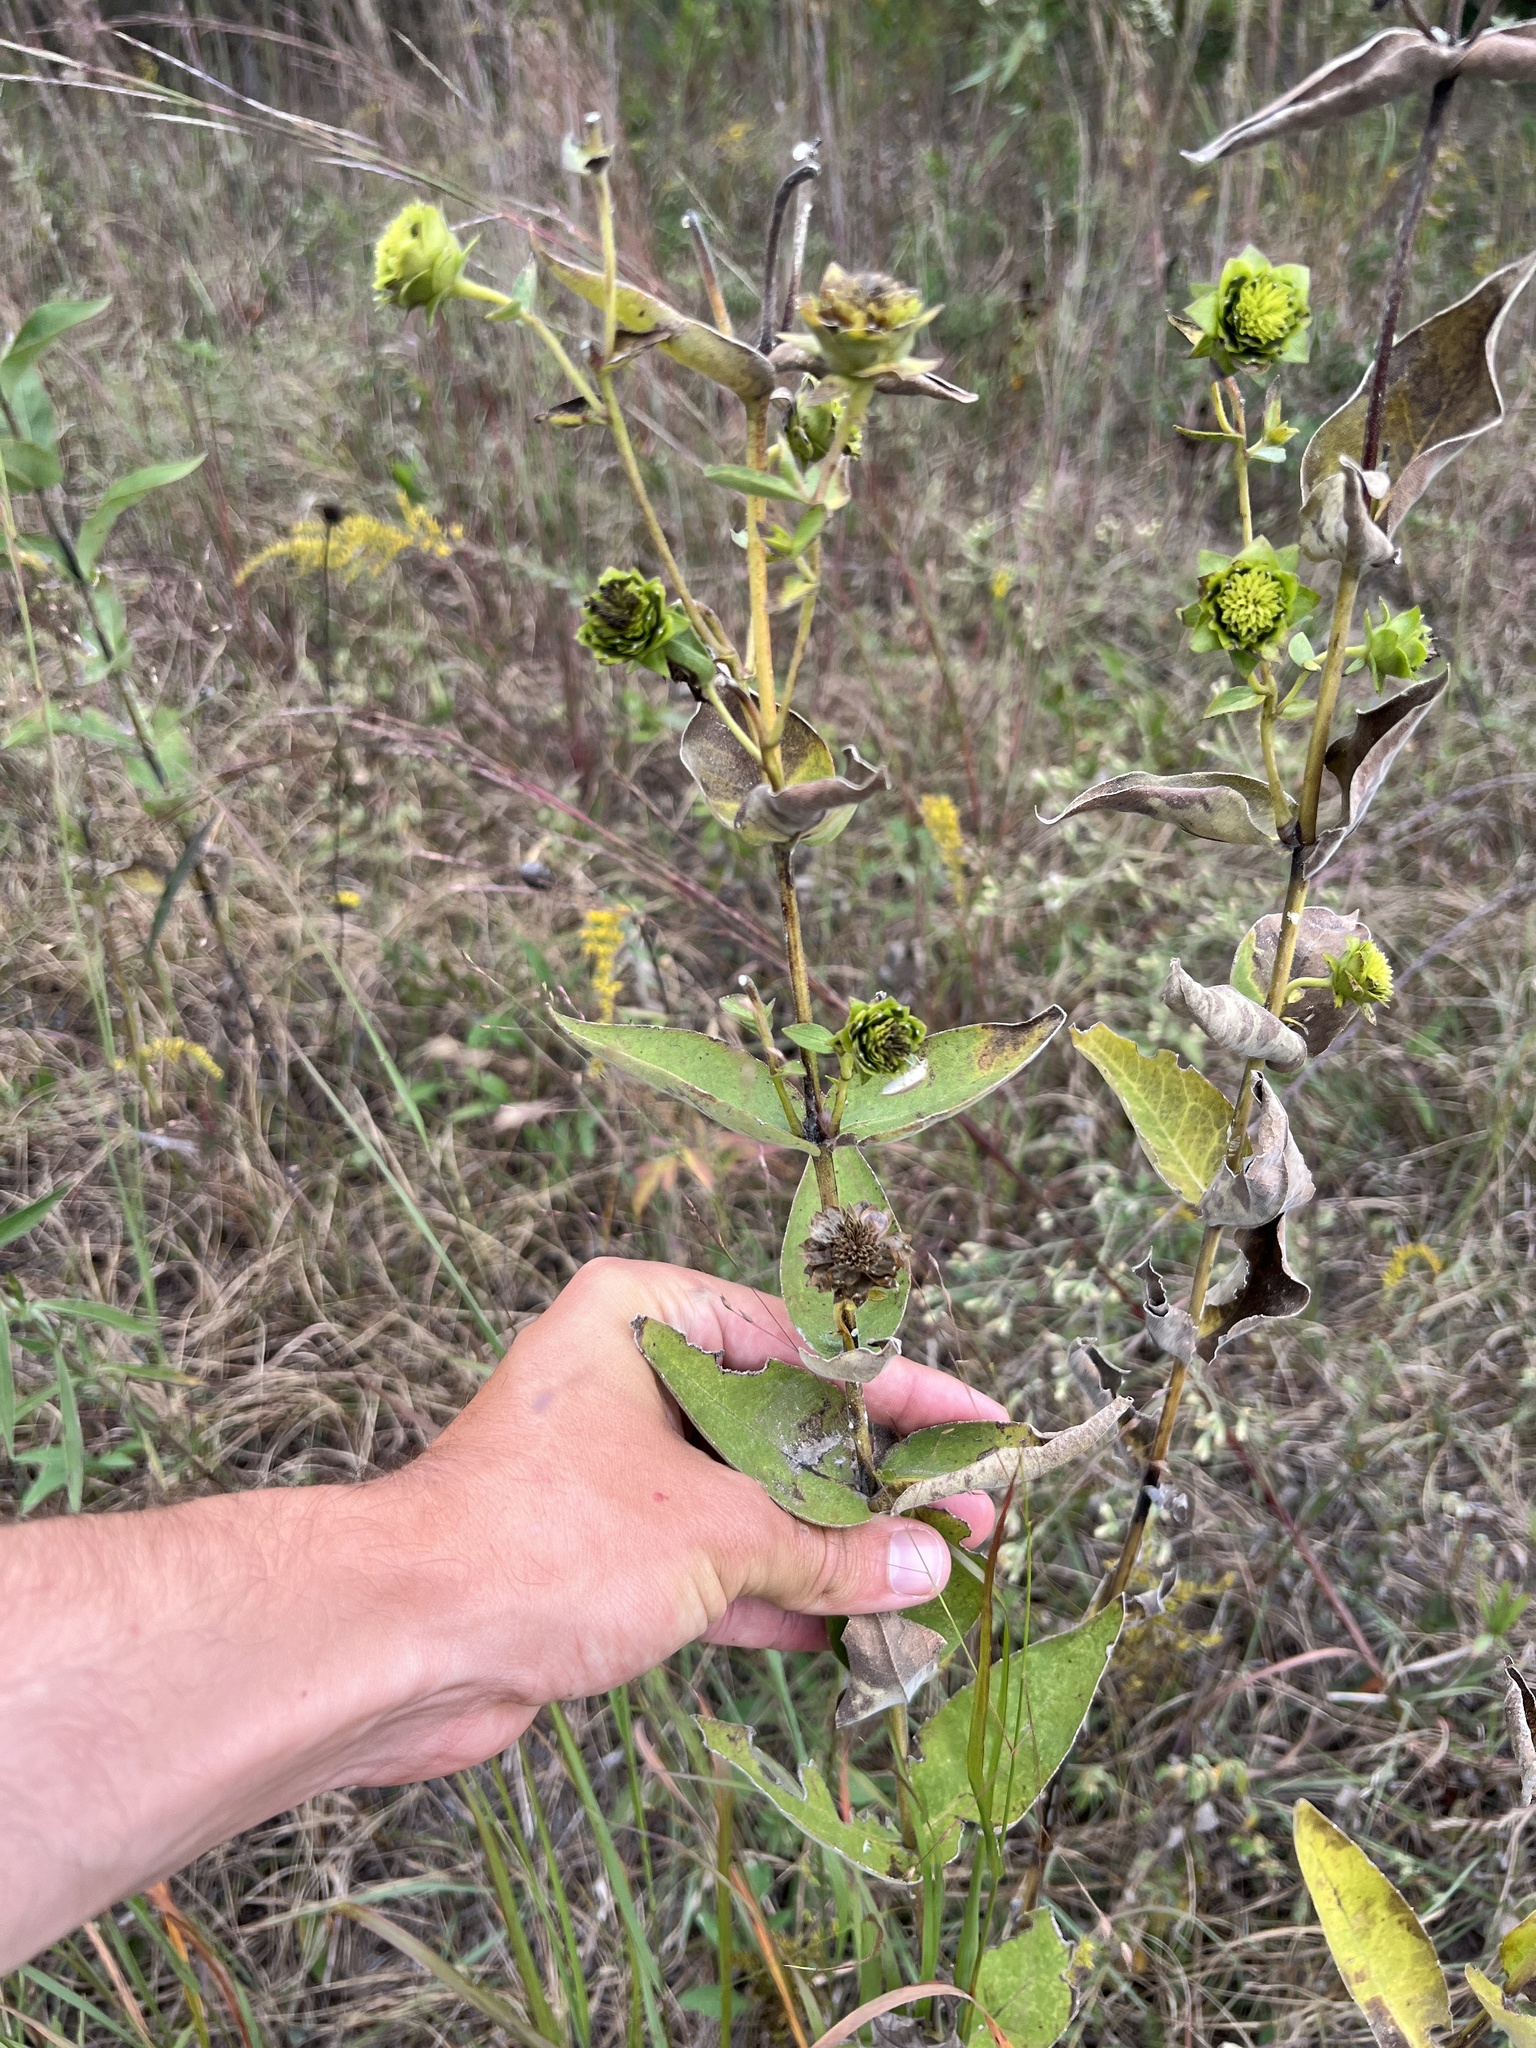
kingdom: Plantae
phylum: Tracheophyta
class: Magnoliopsida
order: Asterales
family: Asteraceae
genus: Silphium
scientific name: Silphium integrifolium
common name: Whole-leaf rosinweed
